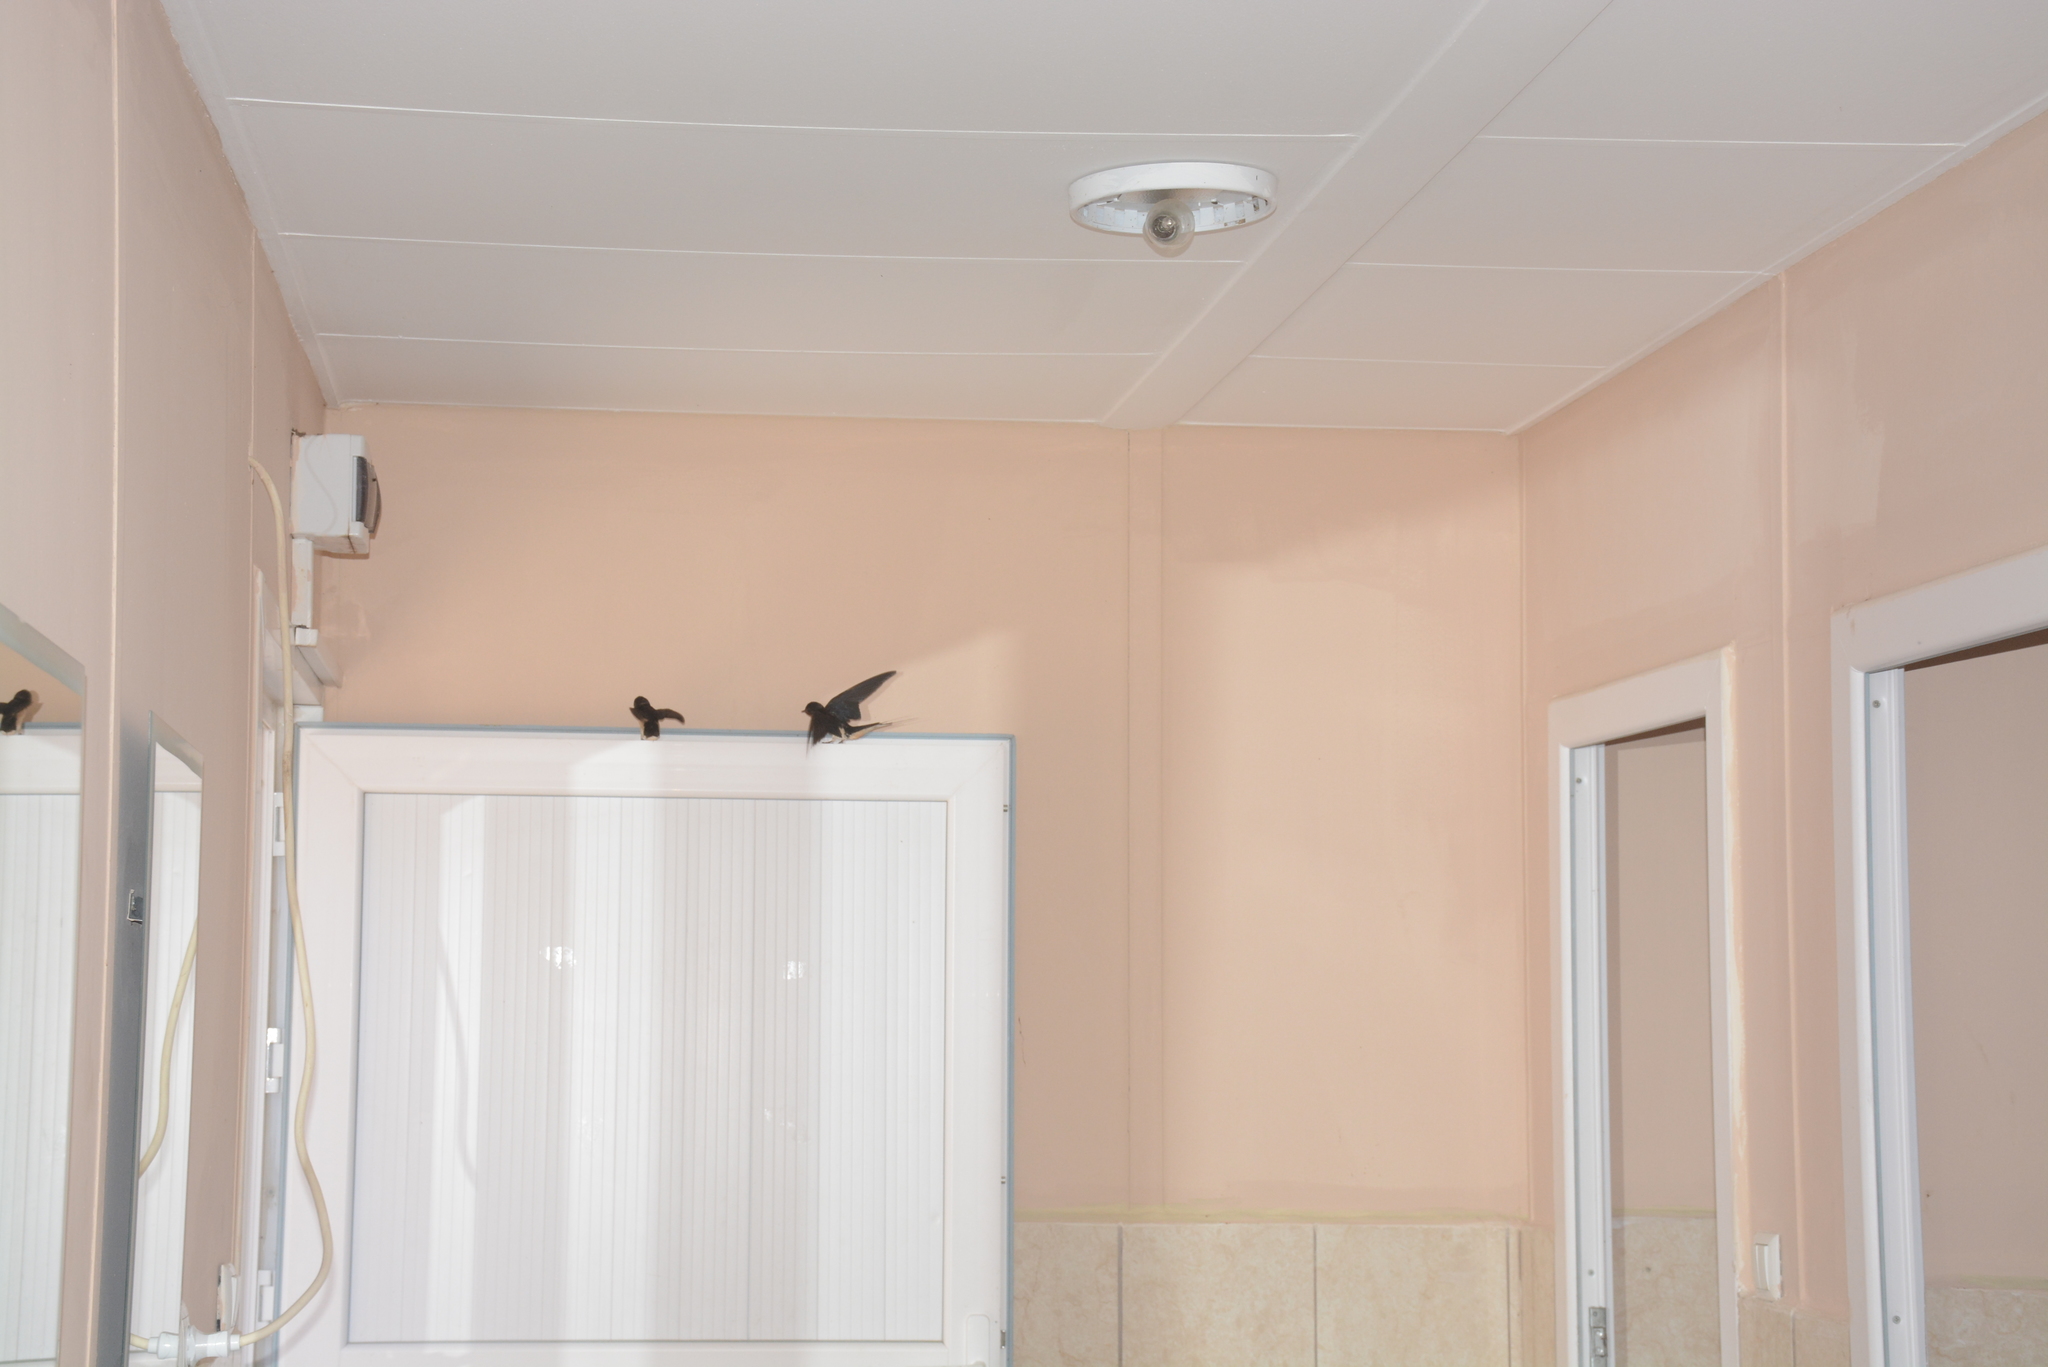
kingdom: Animalia
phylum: Chordata
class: Aves
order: Passeriformes
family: Hirundinidae
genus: Hirundo
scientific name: Hirundo rustica
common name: Barn swallow
